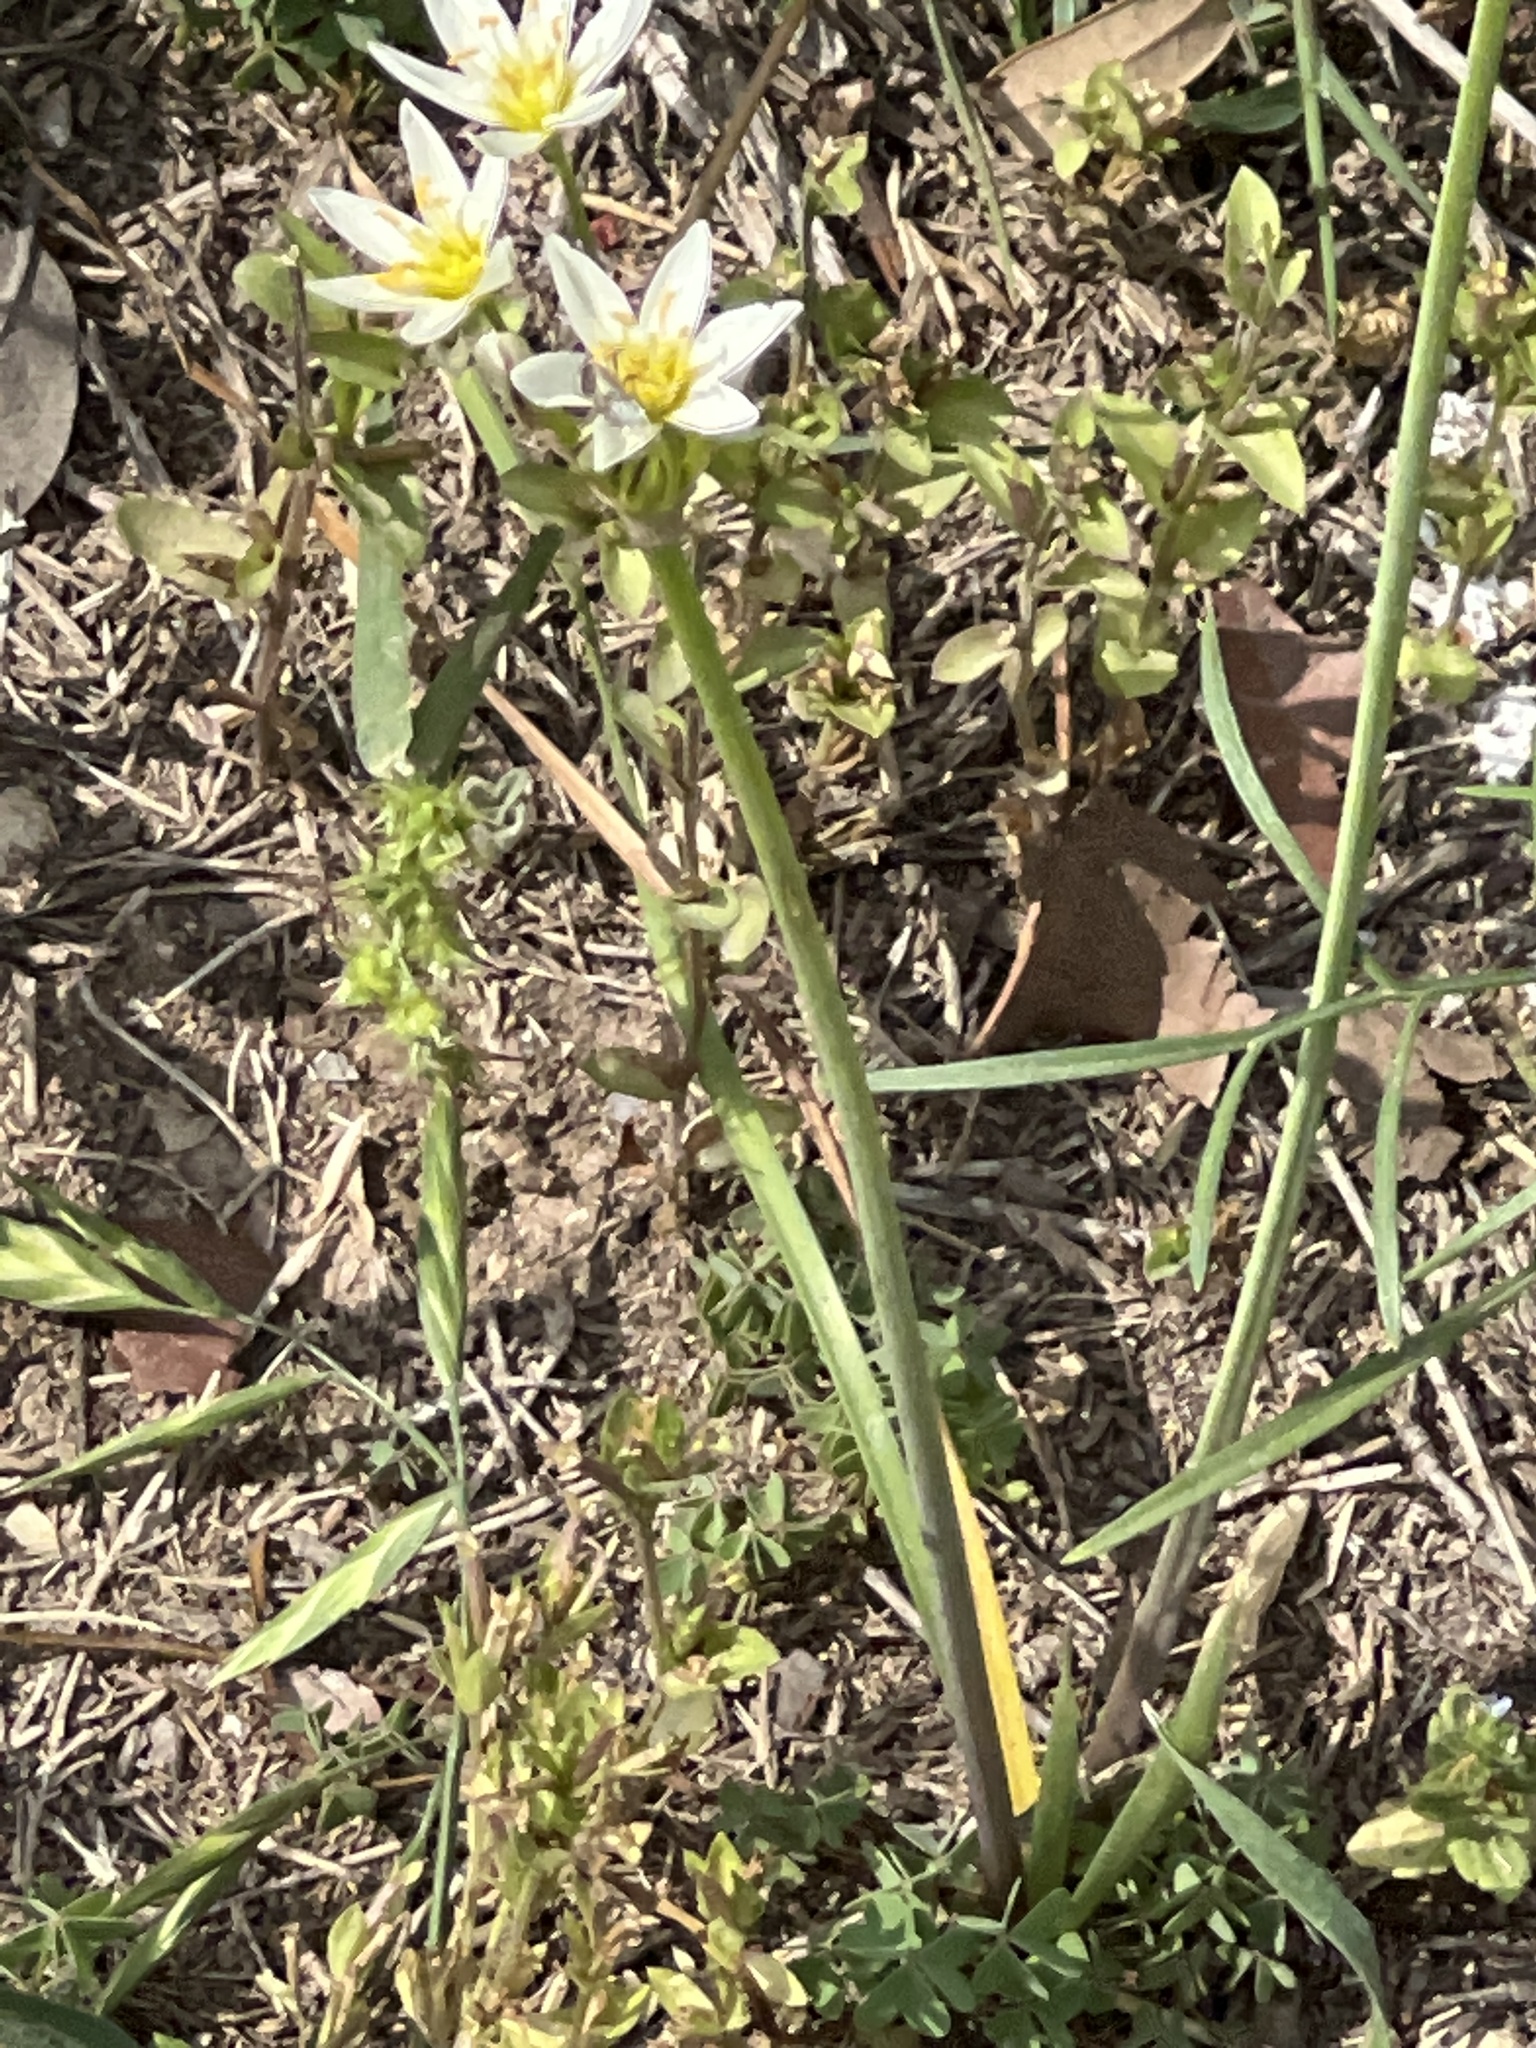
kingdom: Plantae
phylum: Tracheophyta
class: Liliopsida
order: Asparagales
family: Amaryllidaceae
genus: Nothoscordum
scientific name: Nothoscordum bivalve
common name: Crow-poison
